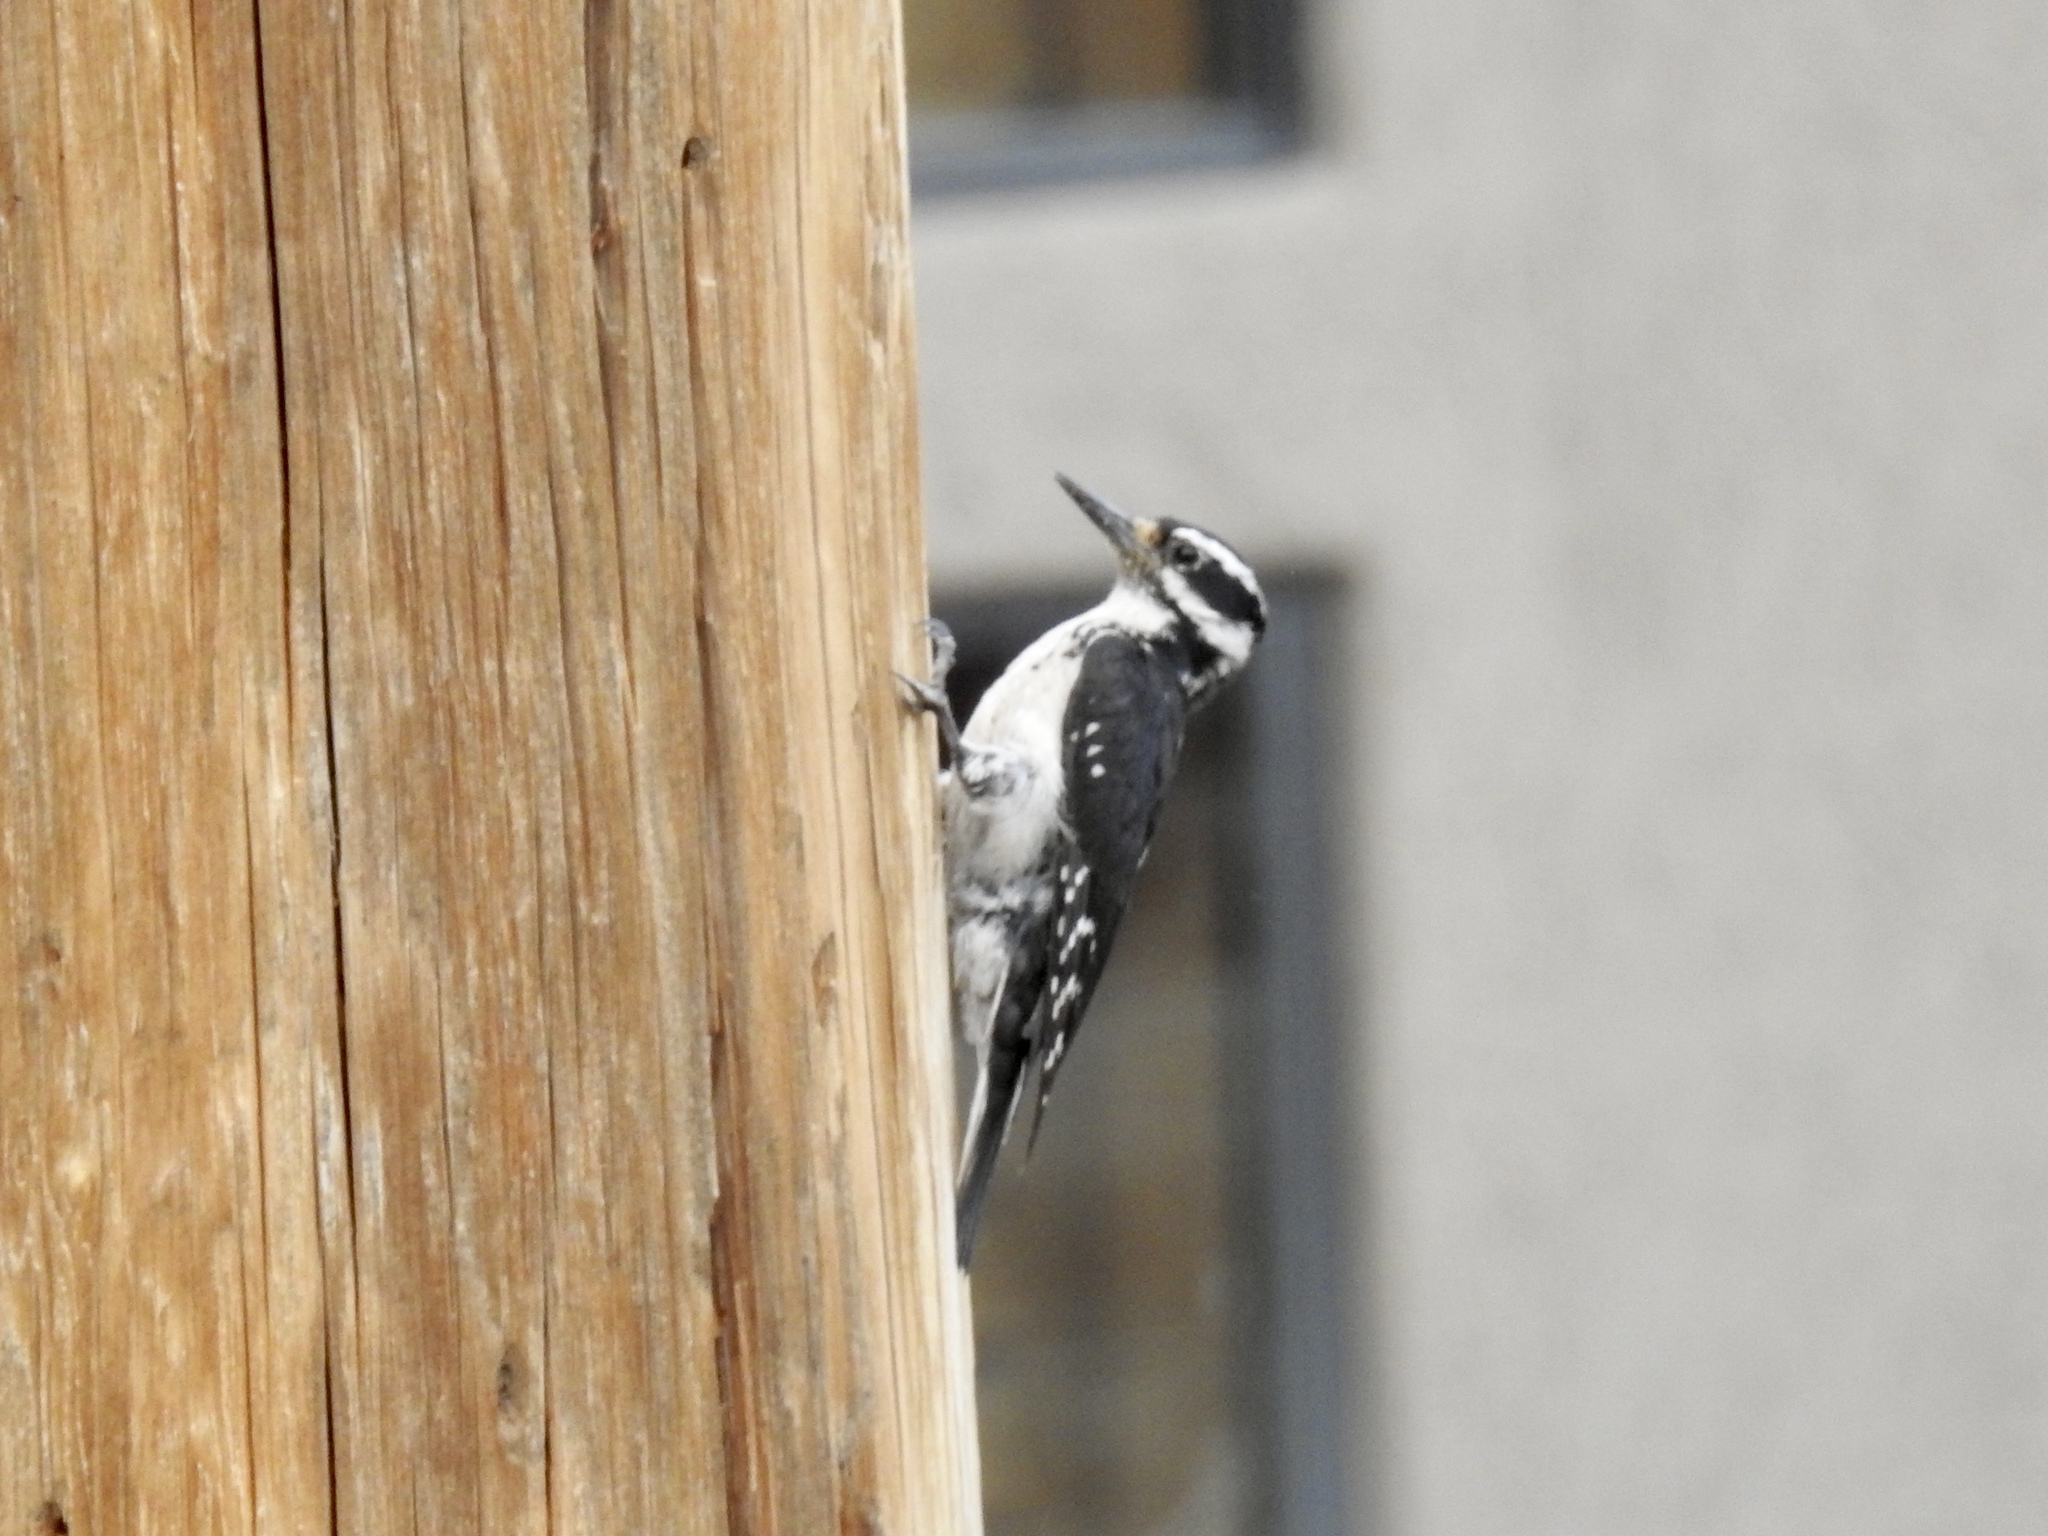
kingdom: Animalia
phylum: Chordata
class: Aves
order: Piciformes
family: Picidae
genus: Leuconotopicus
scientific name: Leuconotopicus villosus
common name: Hairy woodpecker
